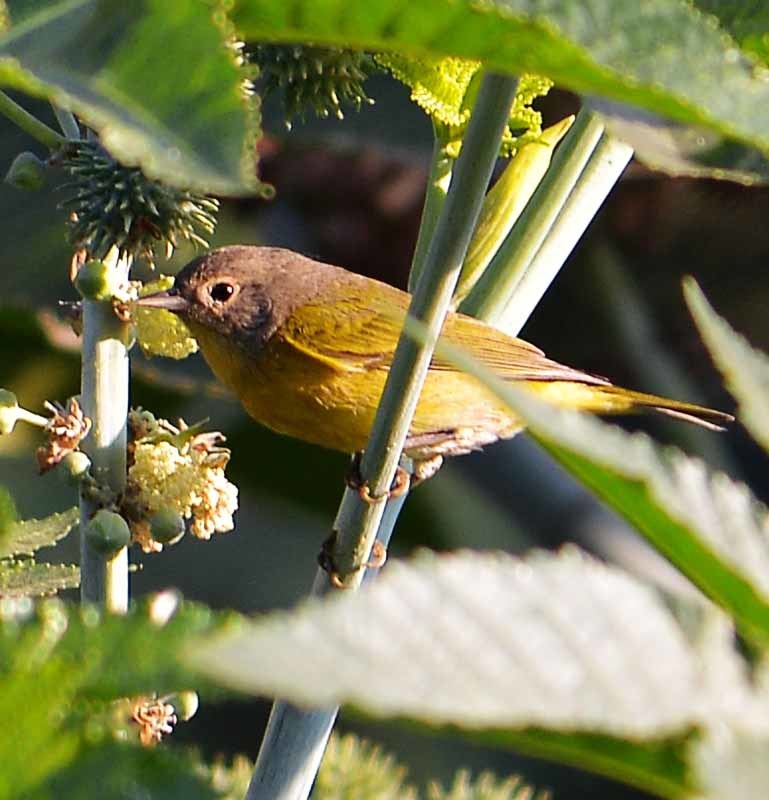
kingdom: Animalia
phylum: Chordata
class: Aves
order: Passeriformes
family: Parulidae
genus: Leiothlypis
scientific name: Leiothlypis ruficapilla
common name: Nashville warbler
